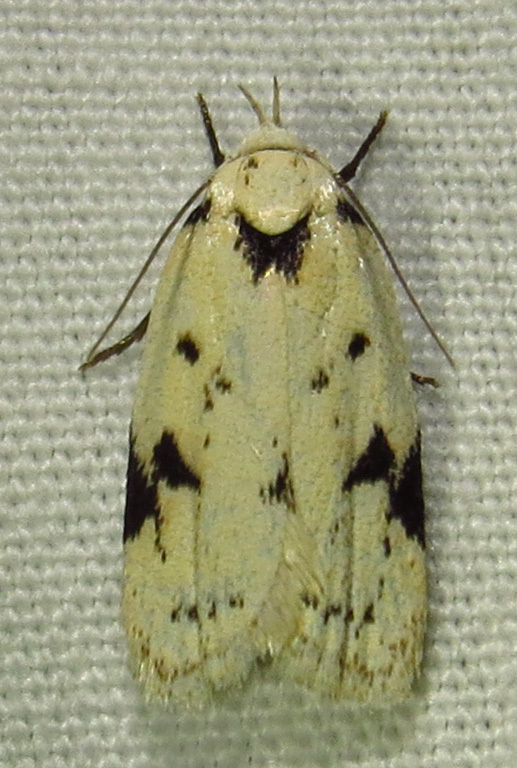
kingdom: Animalia
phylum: Arthropoda
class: Insecta
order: Lepidoptera
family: Oecophoridae
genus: Inga
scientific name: Inga sparsiciliella
